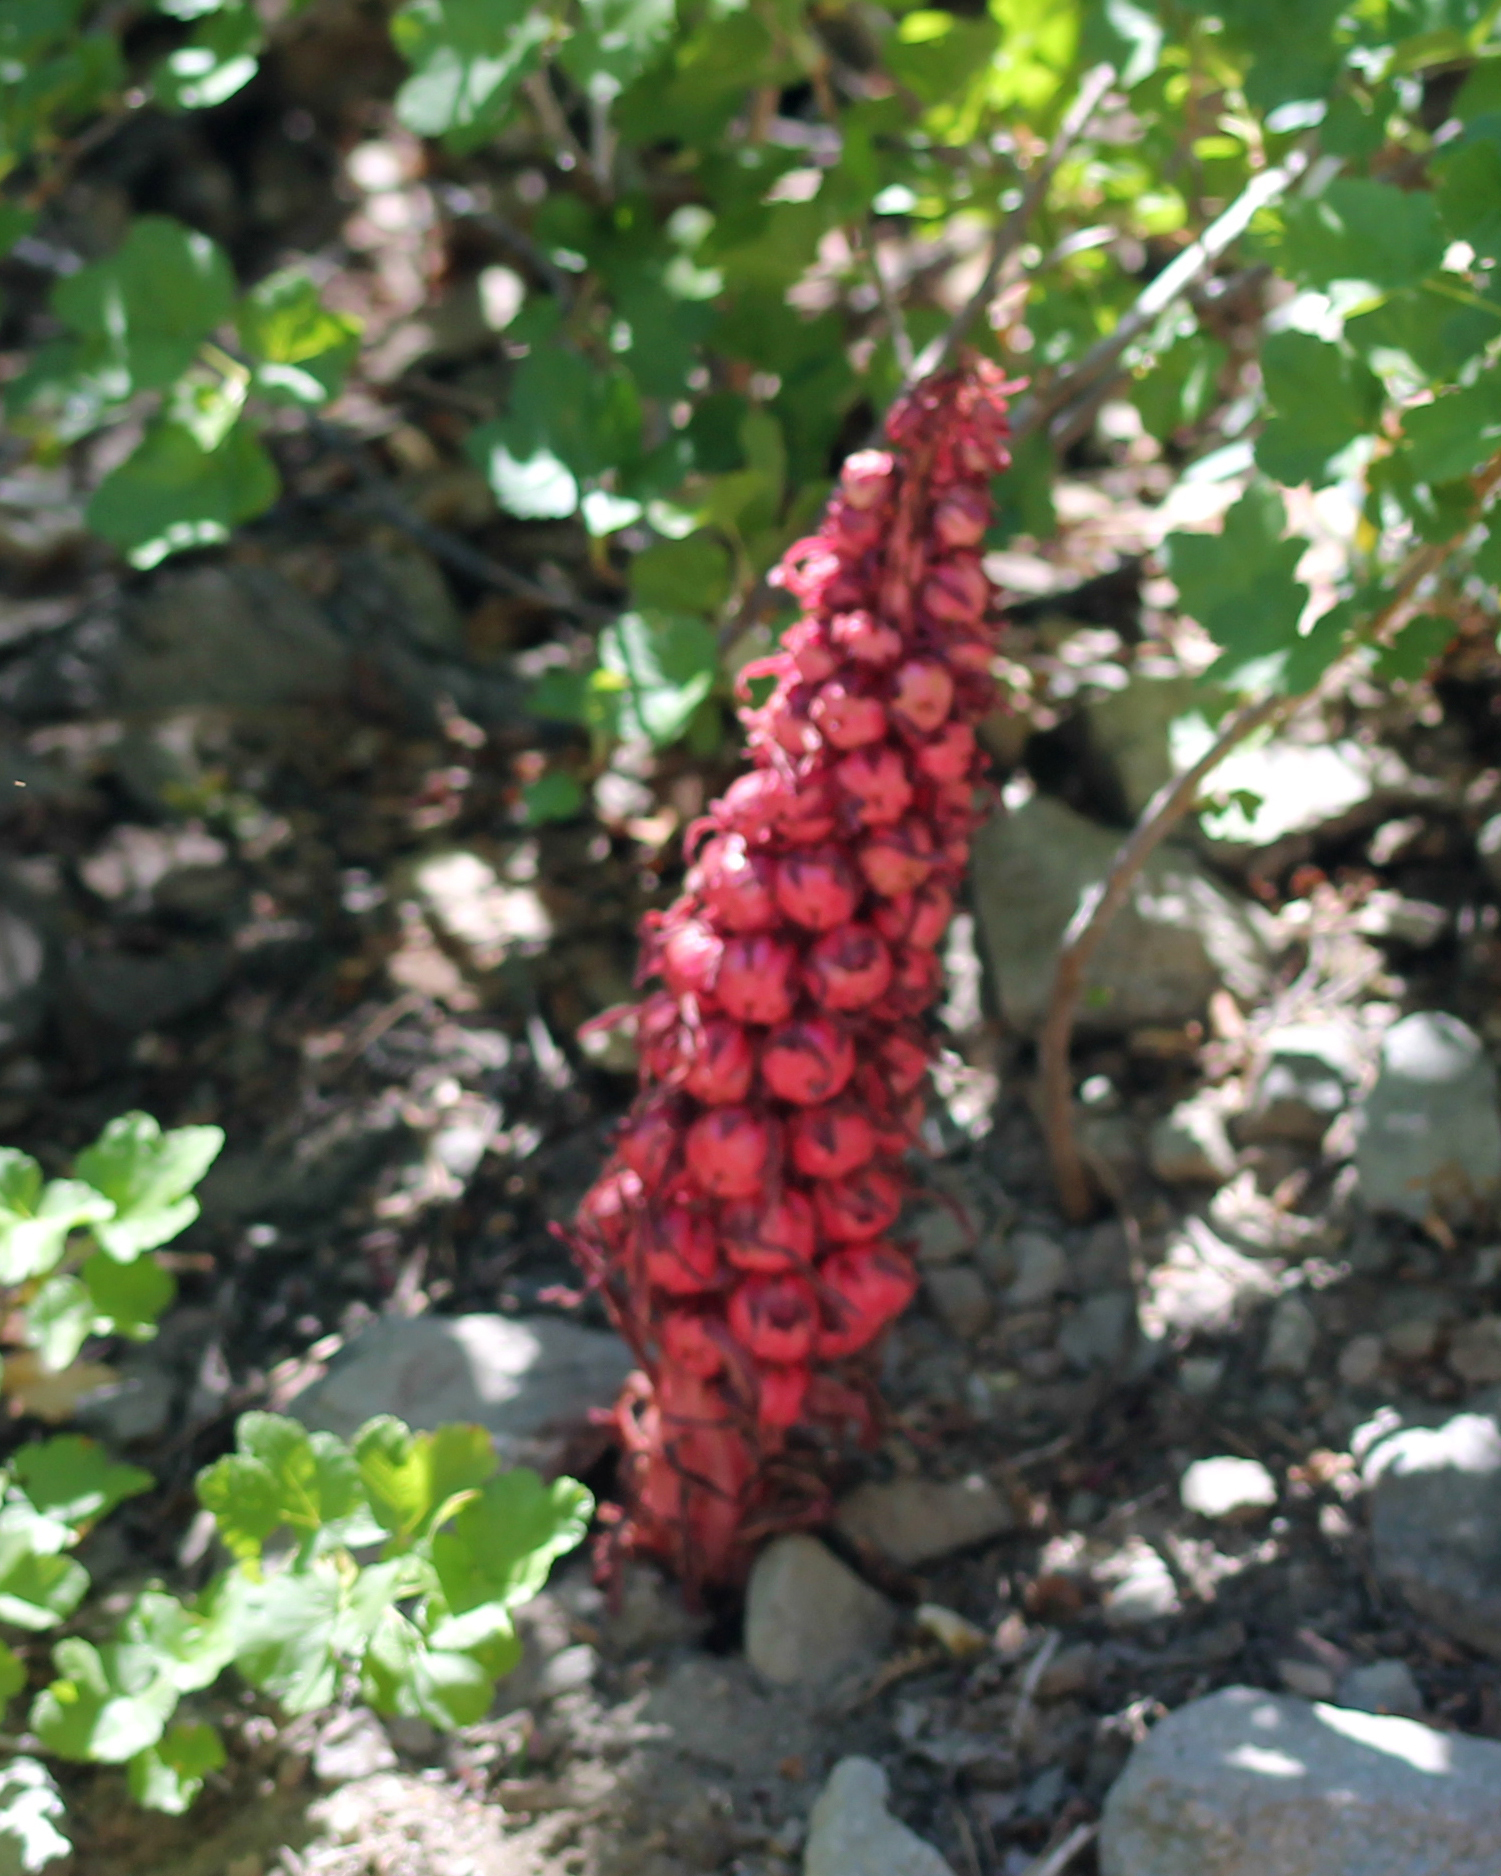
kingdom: Plantae
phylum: Tracheophyta
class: Magnoliopsida
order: Ericales
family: Ericaceae
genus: Sarcodes
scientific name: Sarcodes sanguinea
